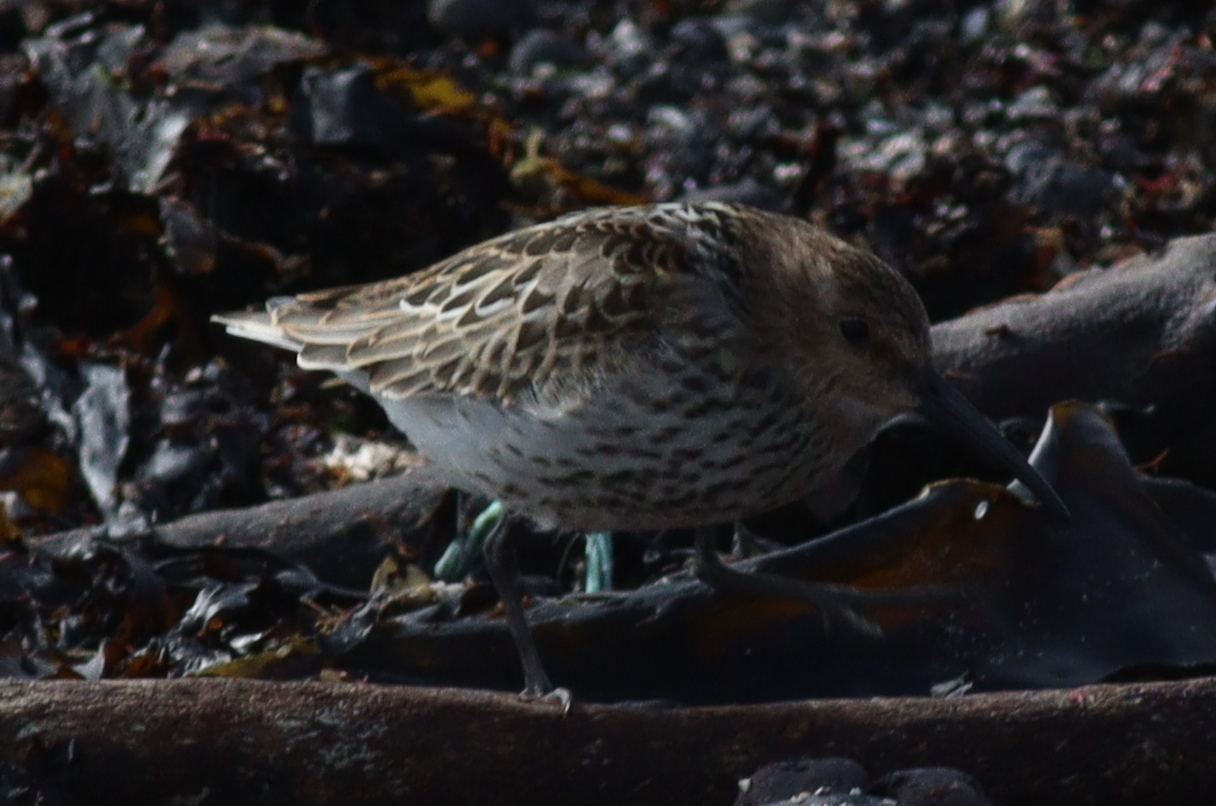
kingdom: Animalia
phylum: Chordata
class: Aves
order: Charadriiformes
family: Scolopacidae
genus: Calidris
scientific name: Calidris alpina
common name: Dunlin
